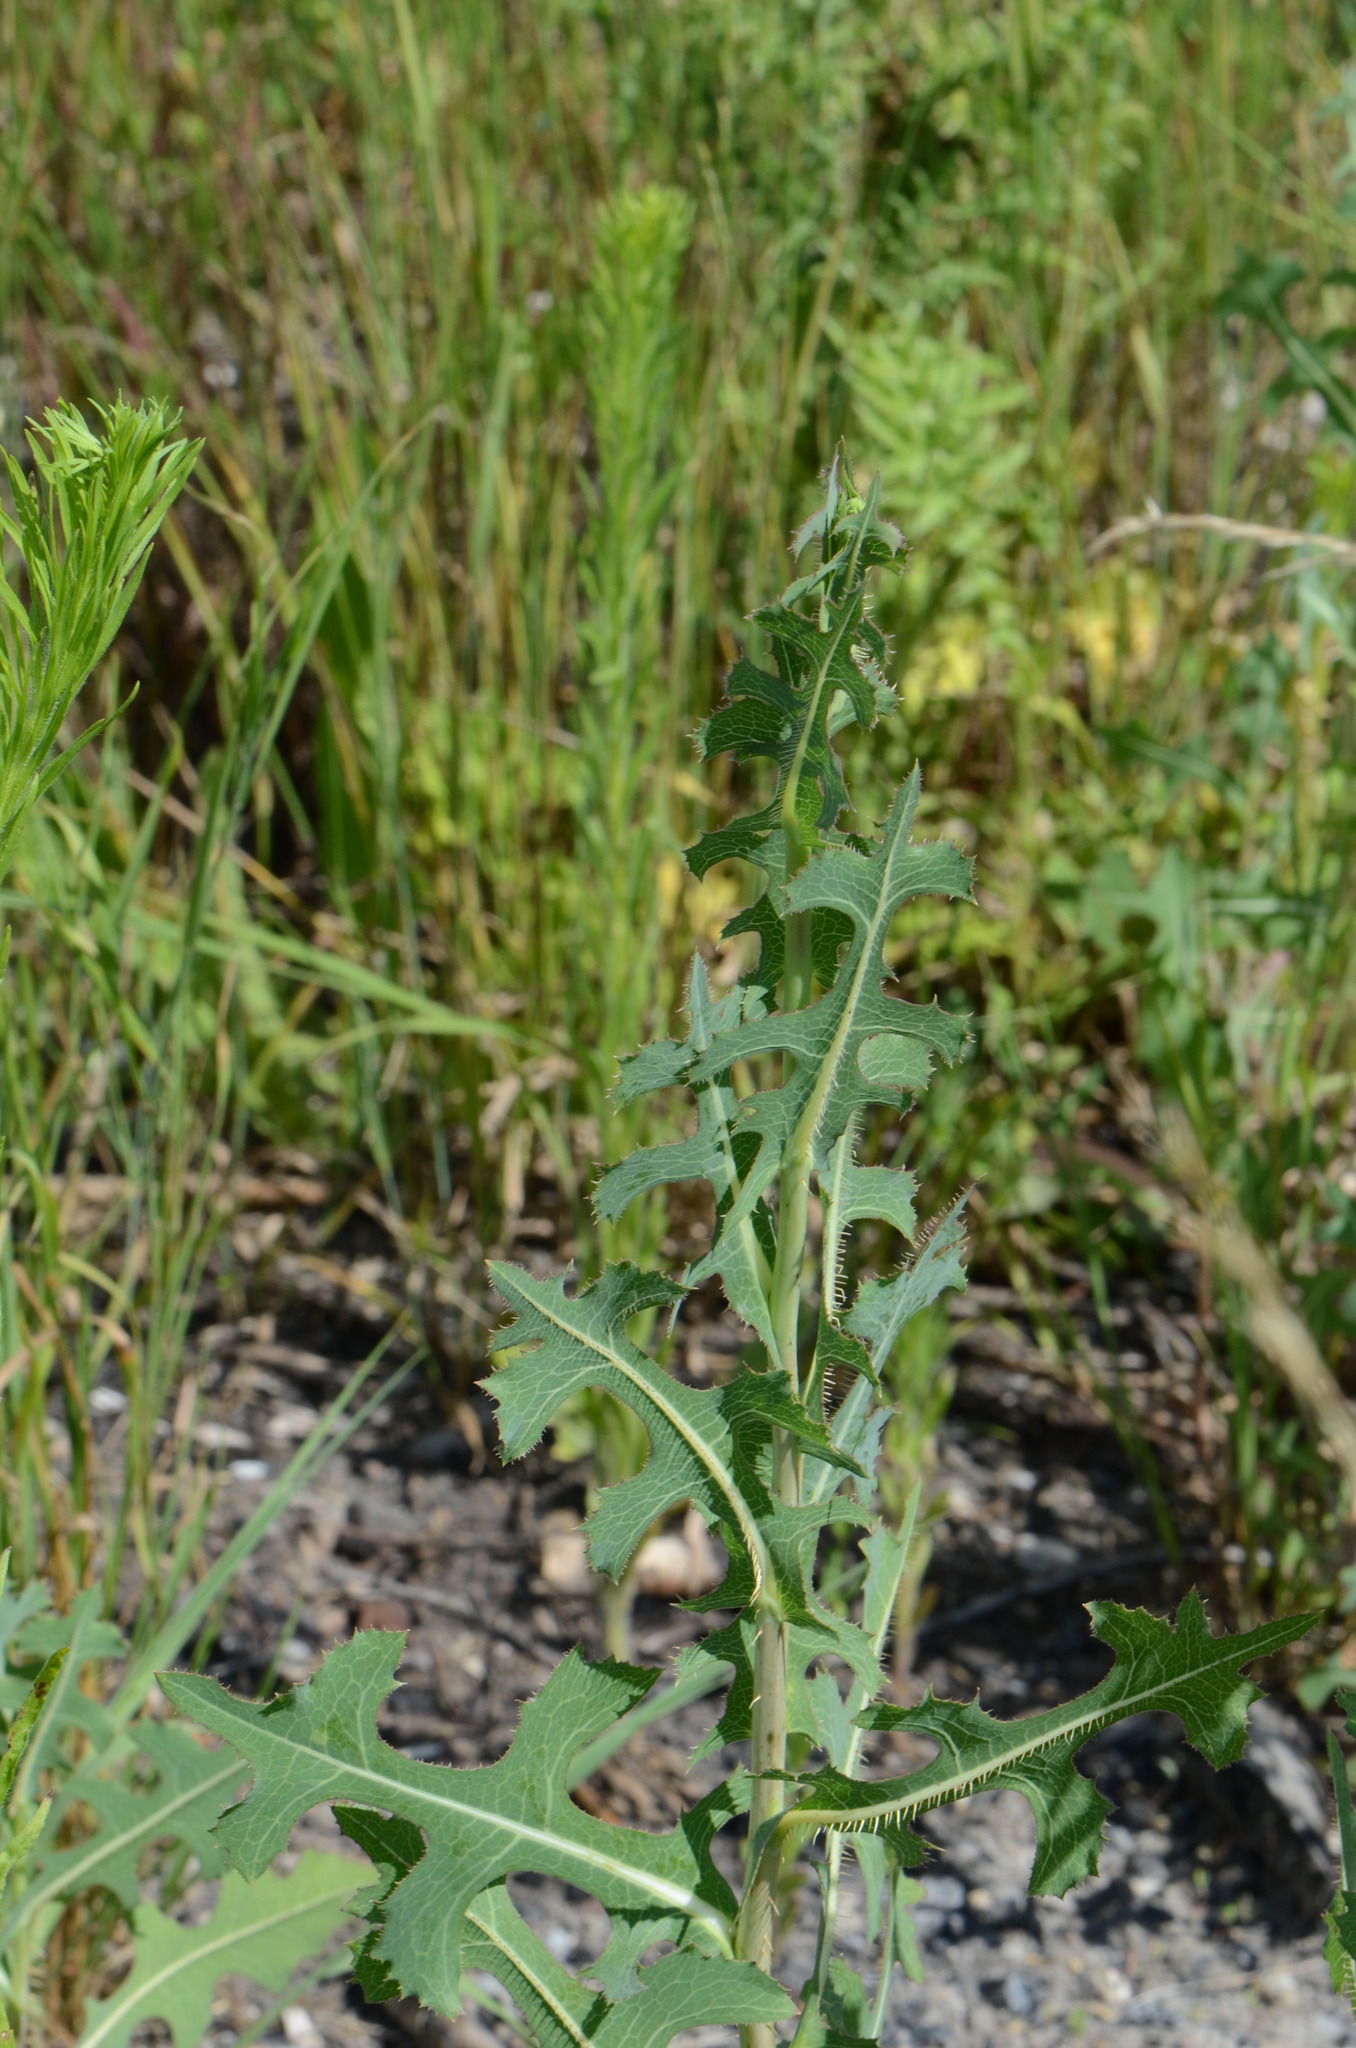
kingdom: Plantae
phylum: Tracheophyta
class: Magnoliopsida
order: Asterales
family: Asteraceae
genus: Lactuca
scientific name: Lactuca serriola
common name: Prickly lettuce
